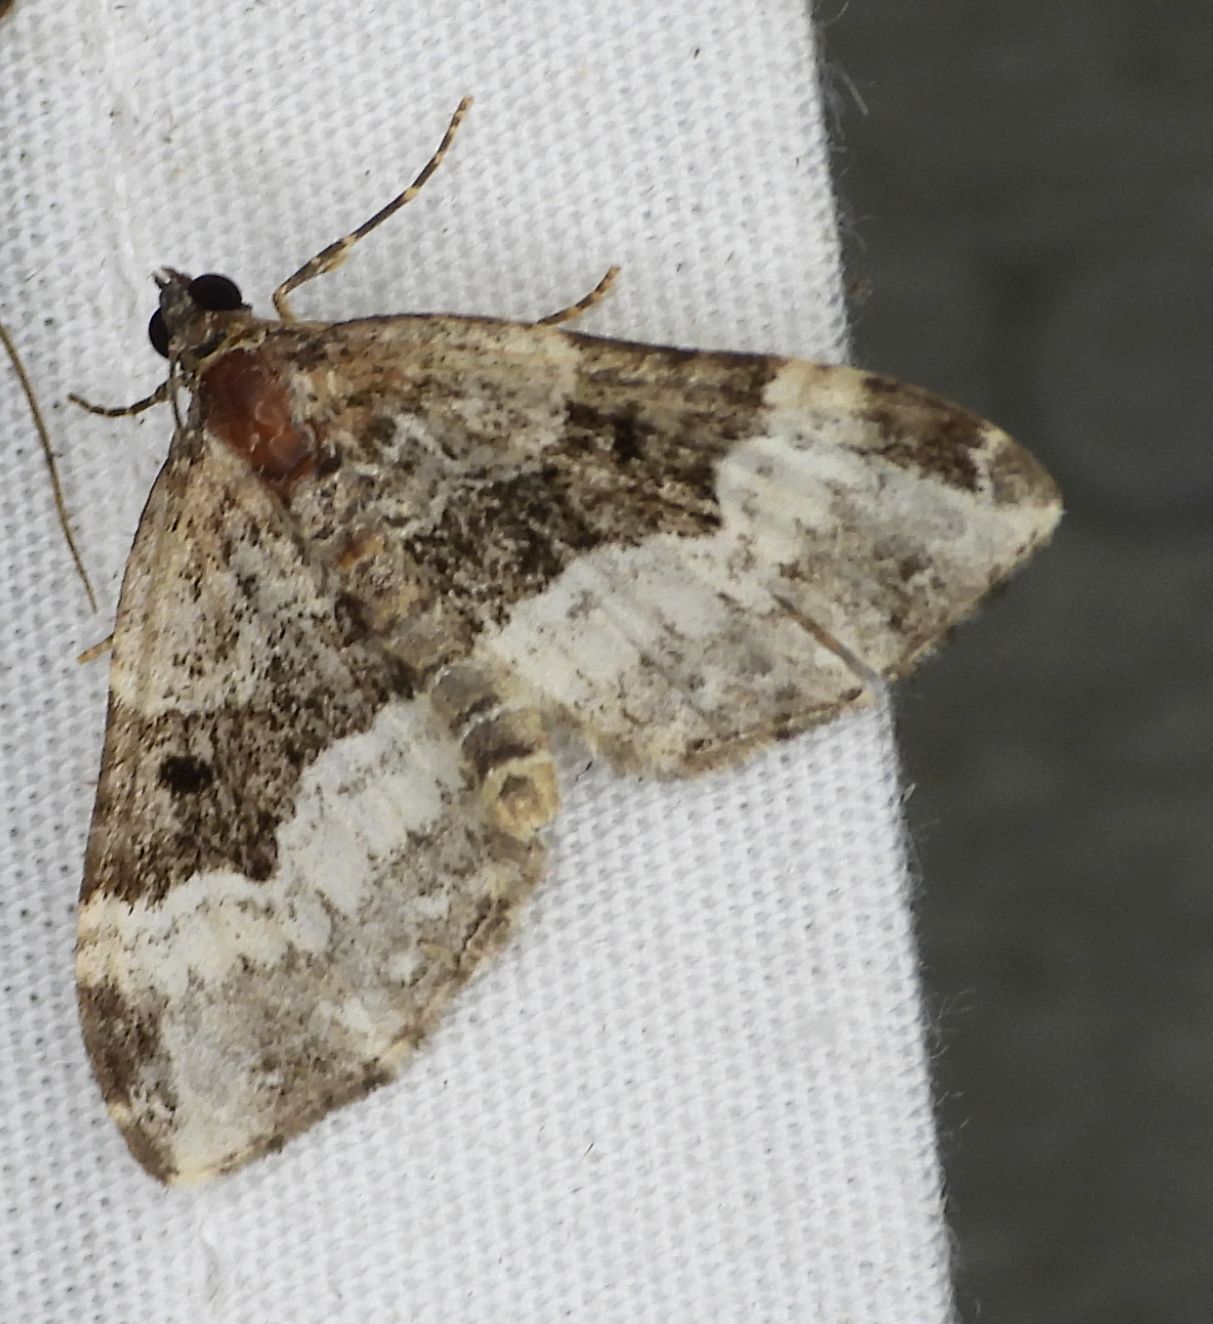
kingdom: Animalia
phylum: Arthropoda
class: Insecta
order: Lepidoptera
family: Geometridae
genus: Euphyia
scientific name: Euphyia intermediata
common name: Sharp-angled carpet
